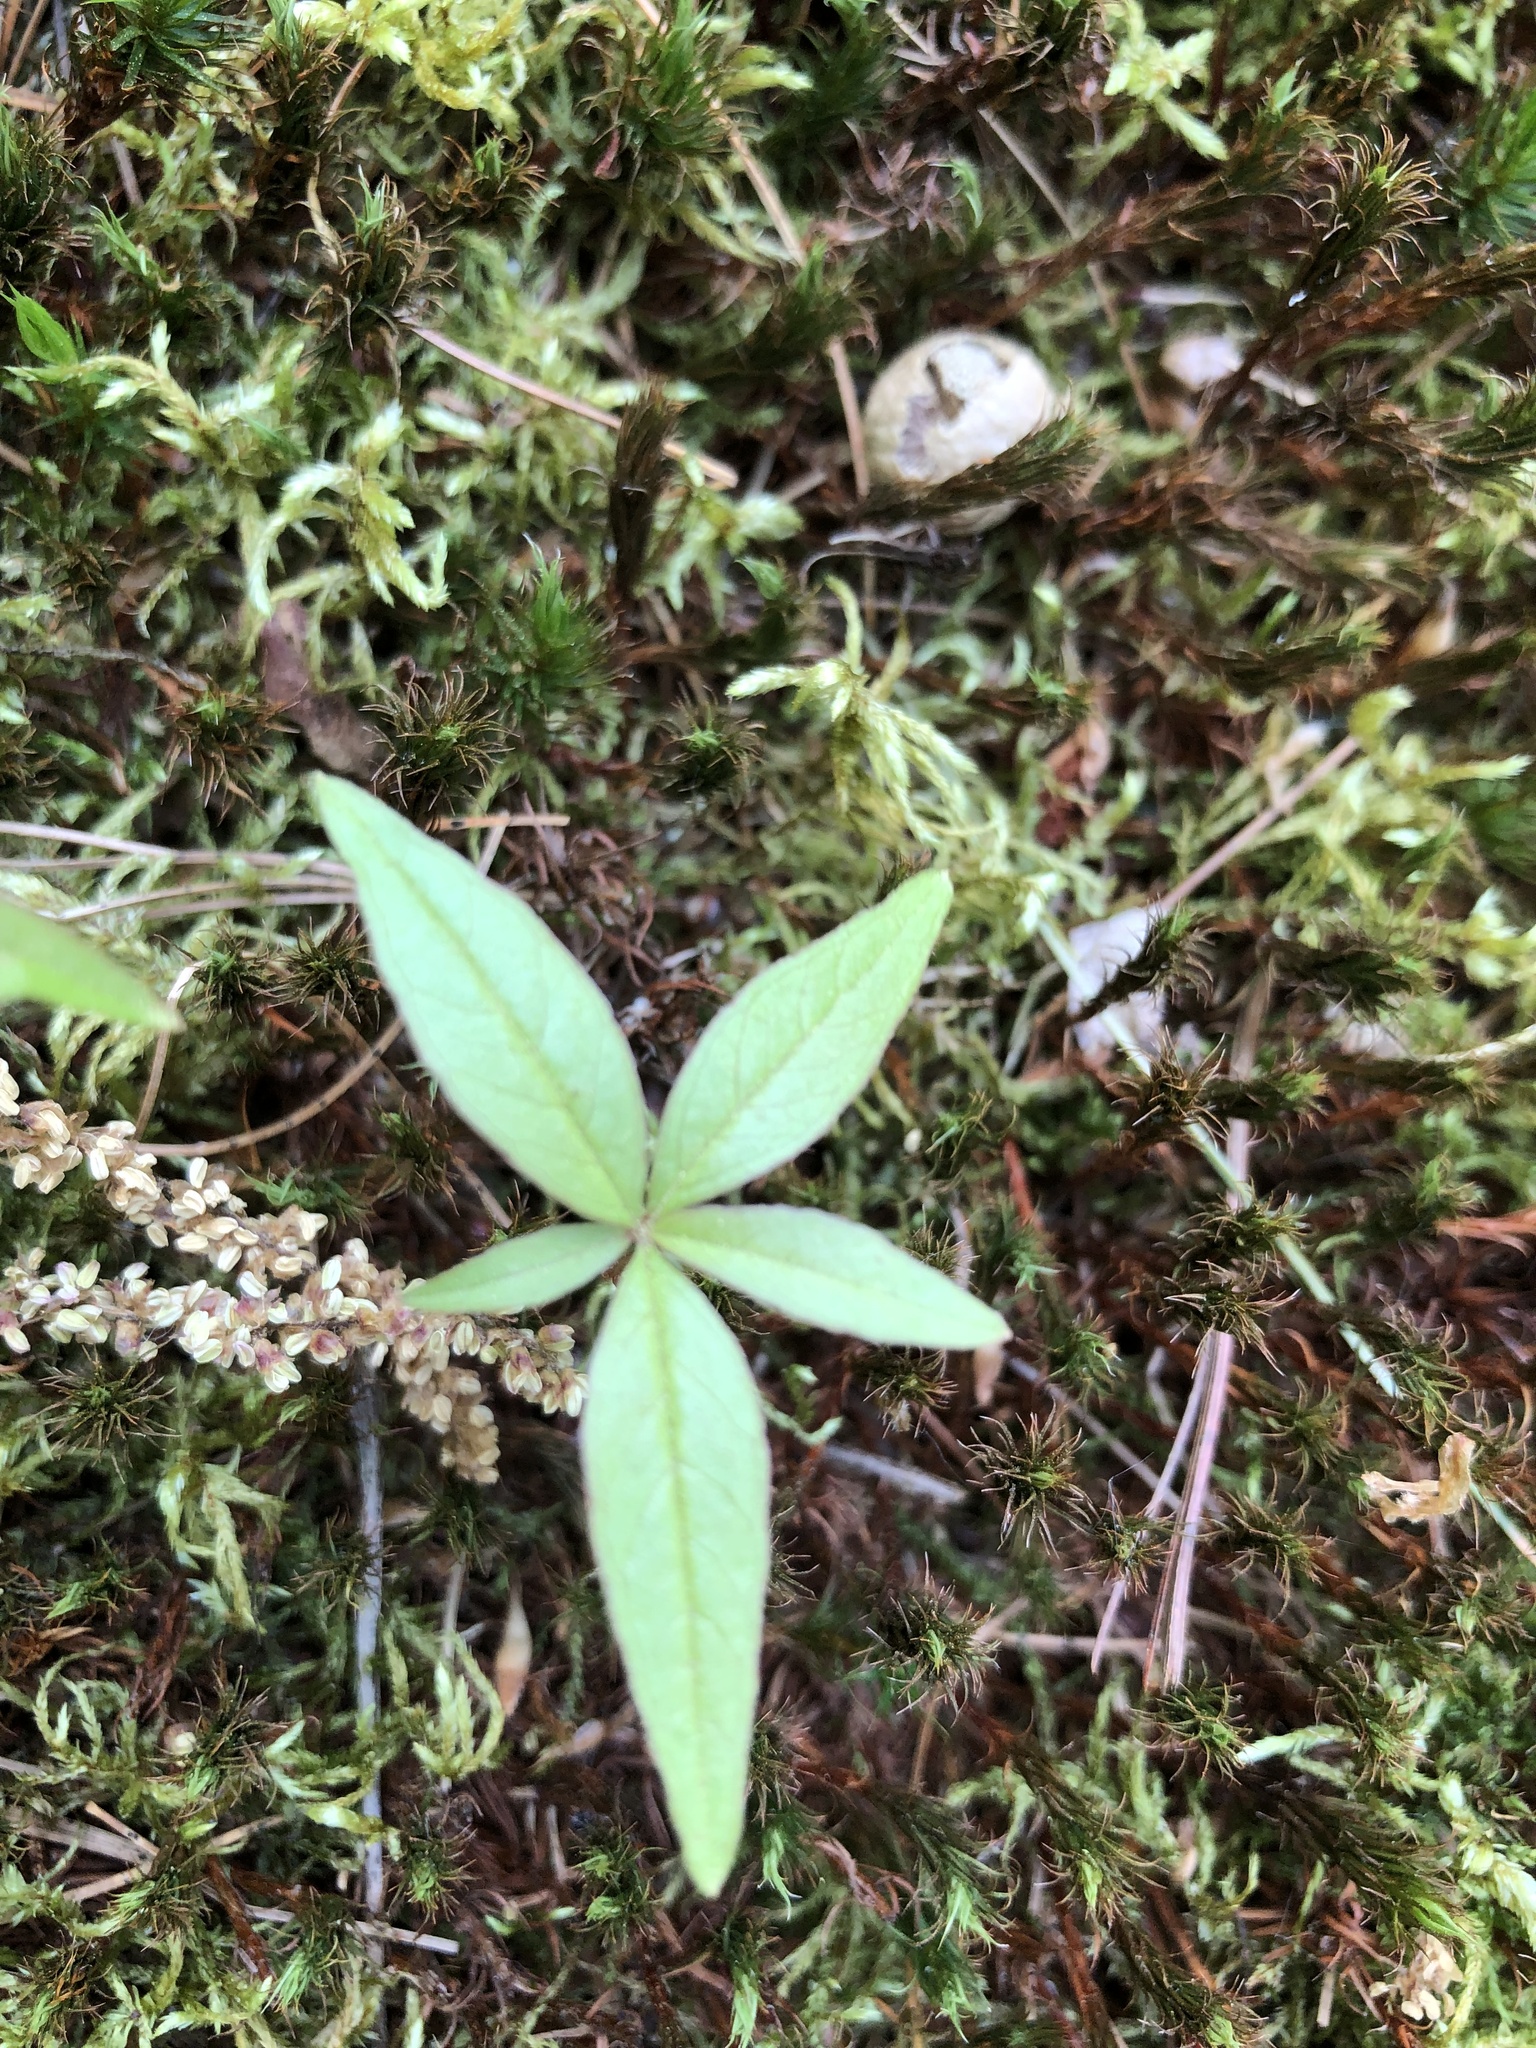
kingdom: Plantae
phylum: Tracheophyta
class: Magnoliopsida
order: Ericales
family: Primulaceae
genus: Lysimachia
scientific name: Lysimachia borealis
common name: American starflower
